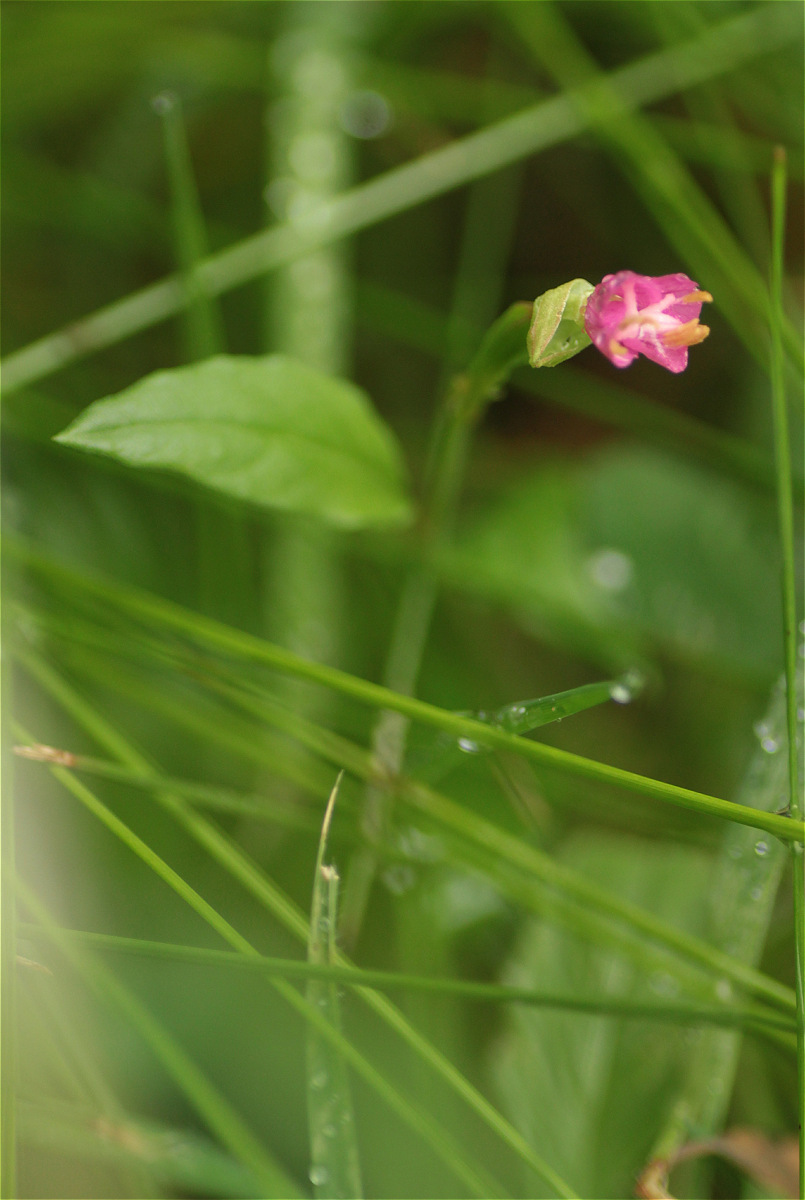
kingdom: Plantae
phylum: Tracheophyta
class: Magnoliopsida
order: Myrtales
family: Onagraceae
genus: Oenothera
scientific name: Oenothera rosea
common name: Rosy evening-primrose
